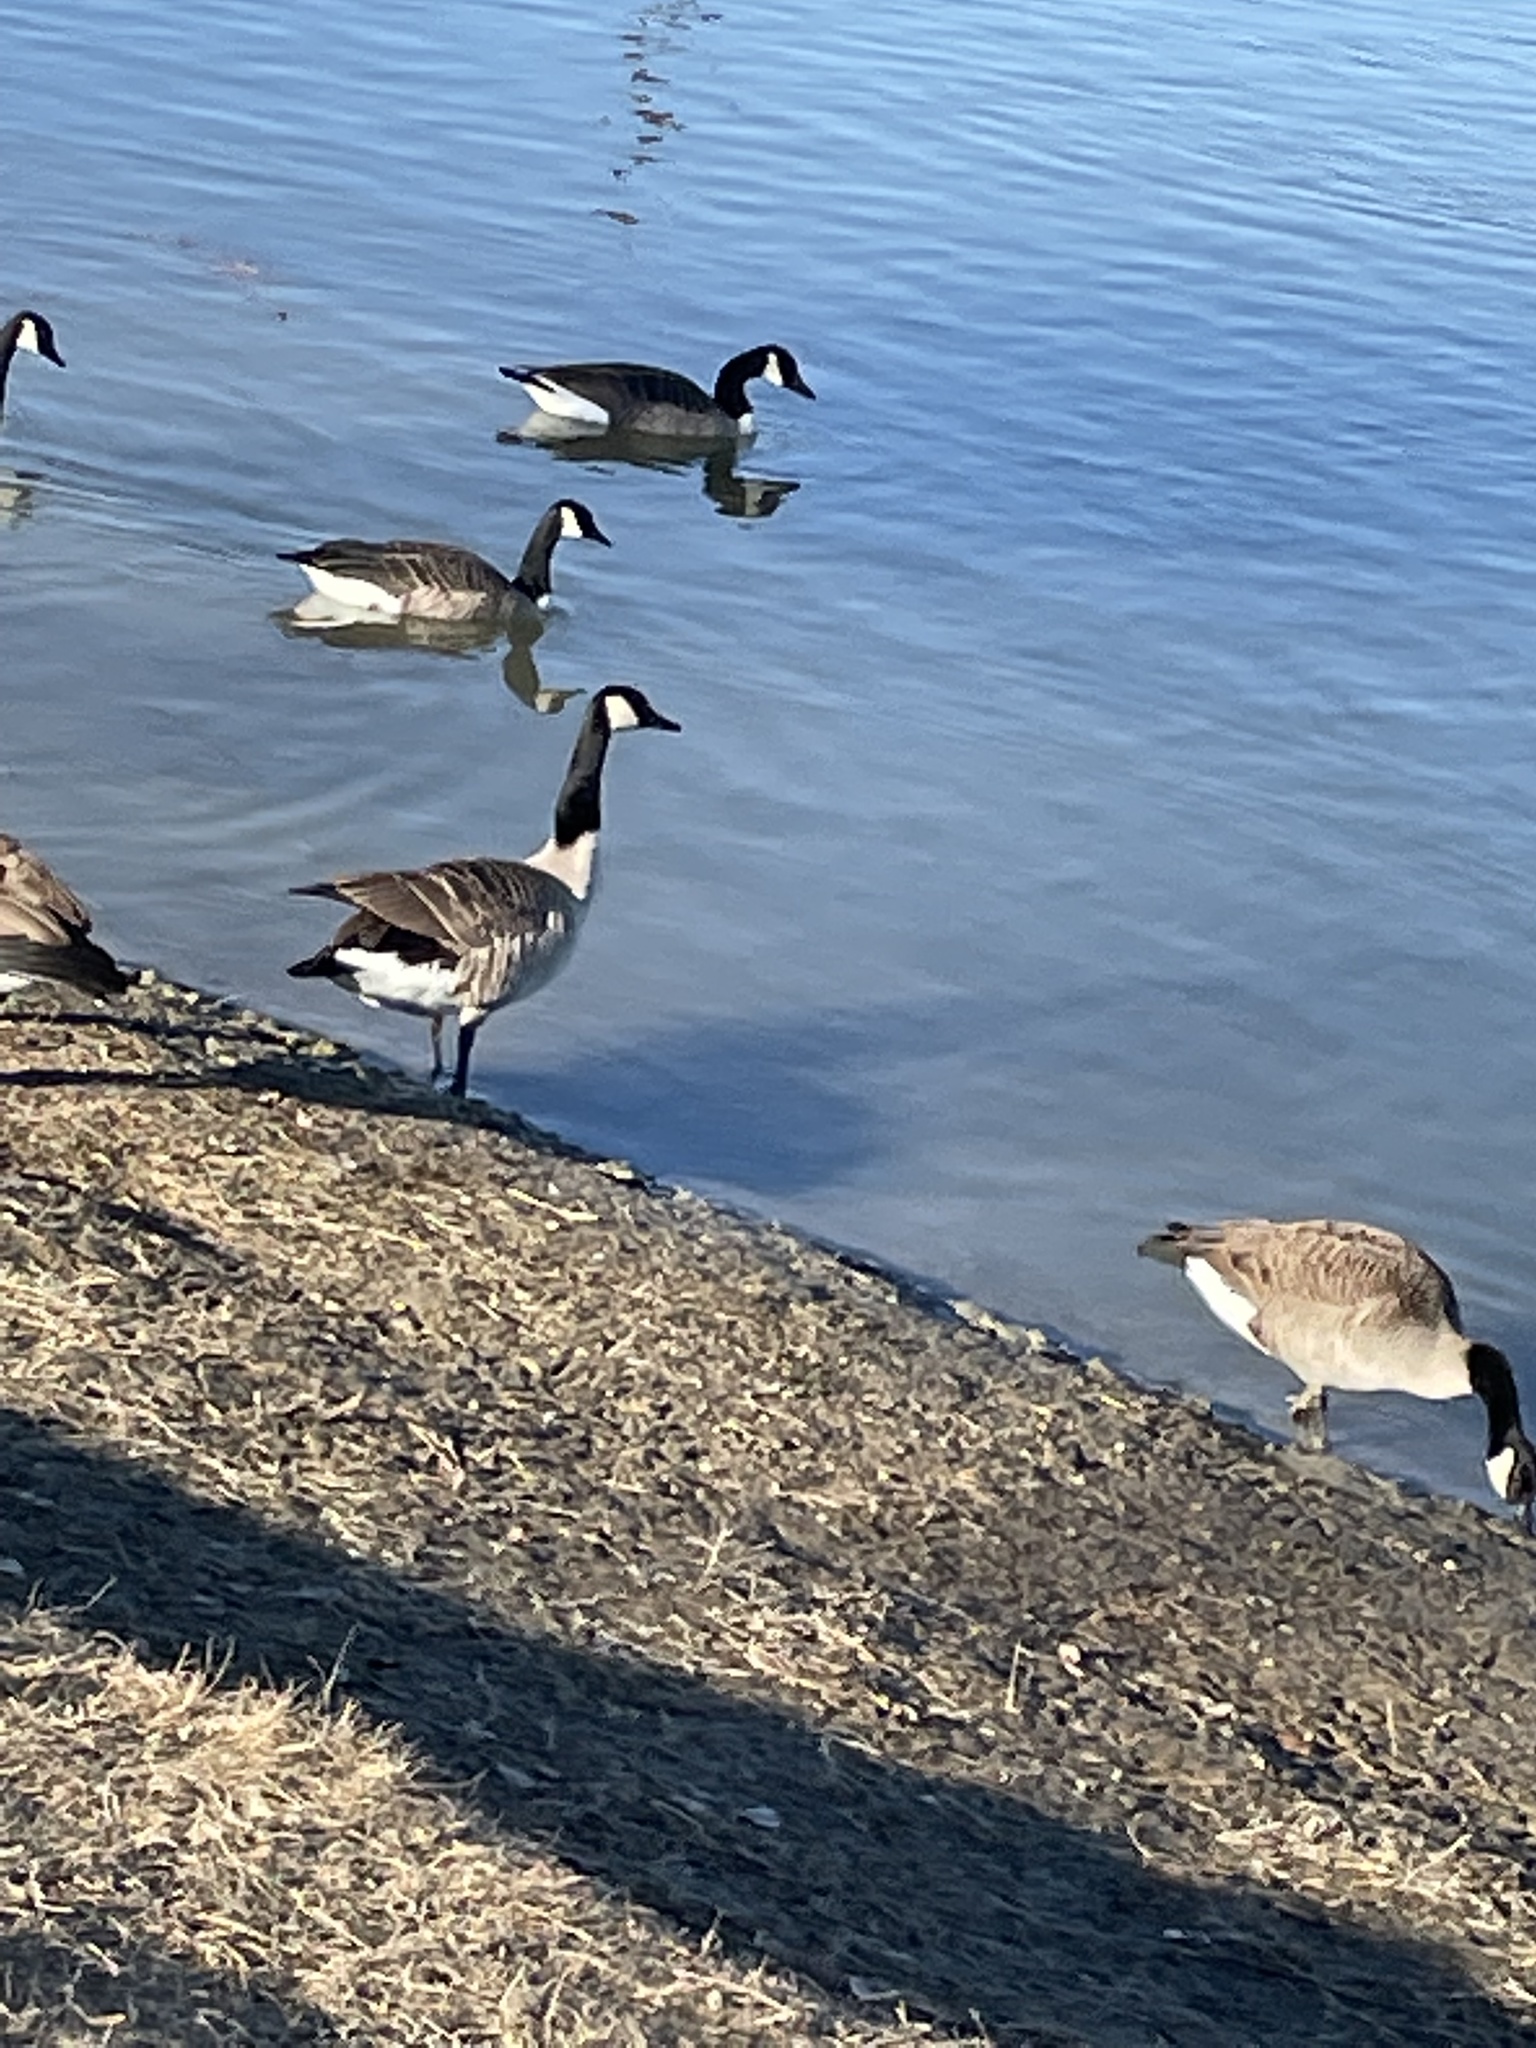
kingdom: Animalia
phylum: Chordata
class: Aves
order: Anseriformes
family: Anatidae
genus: Branta
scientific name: Branta canadensis
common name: Canada goose
